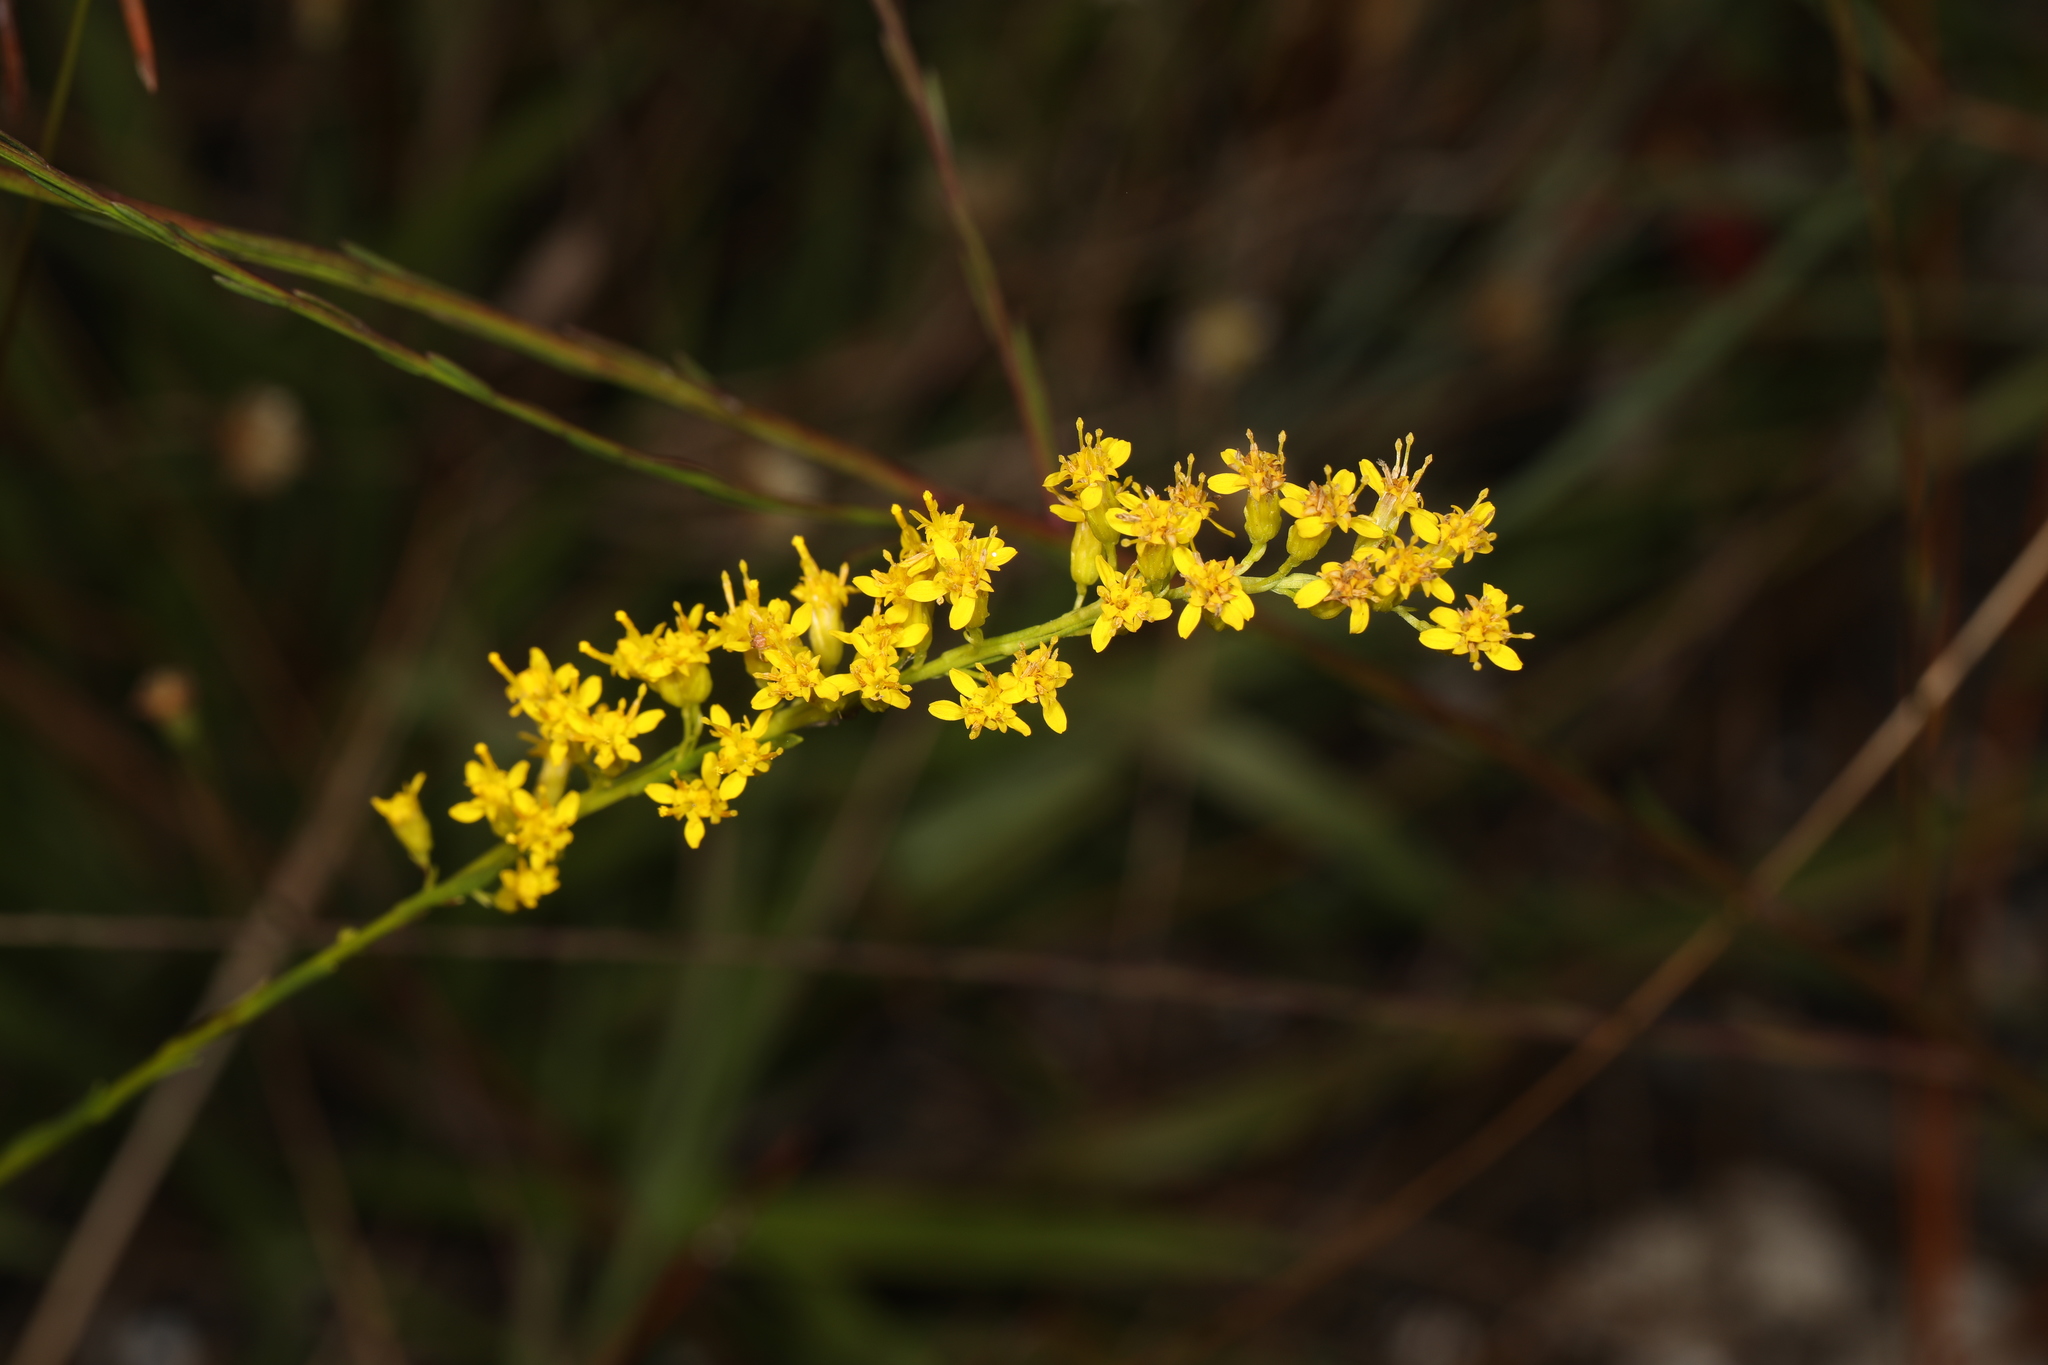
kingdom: Plantae
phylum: Tracheophyta
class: Magnoliopsida
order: Asterales
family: Asteraceae
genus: Solidago
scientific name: Solidago virgata
